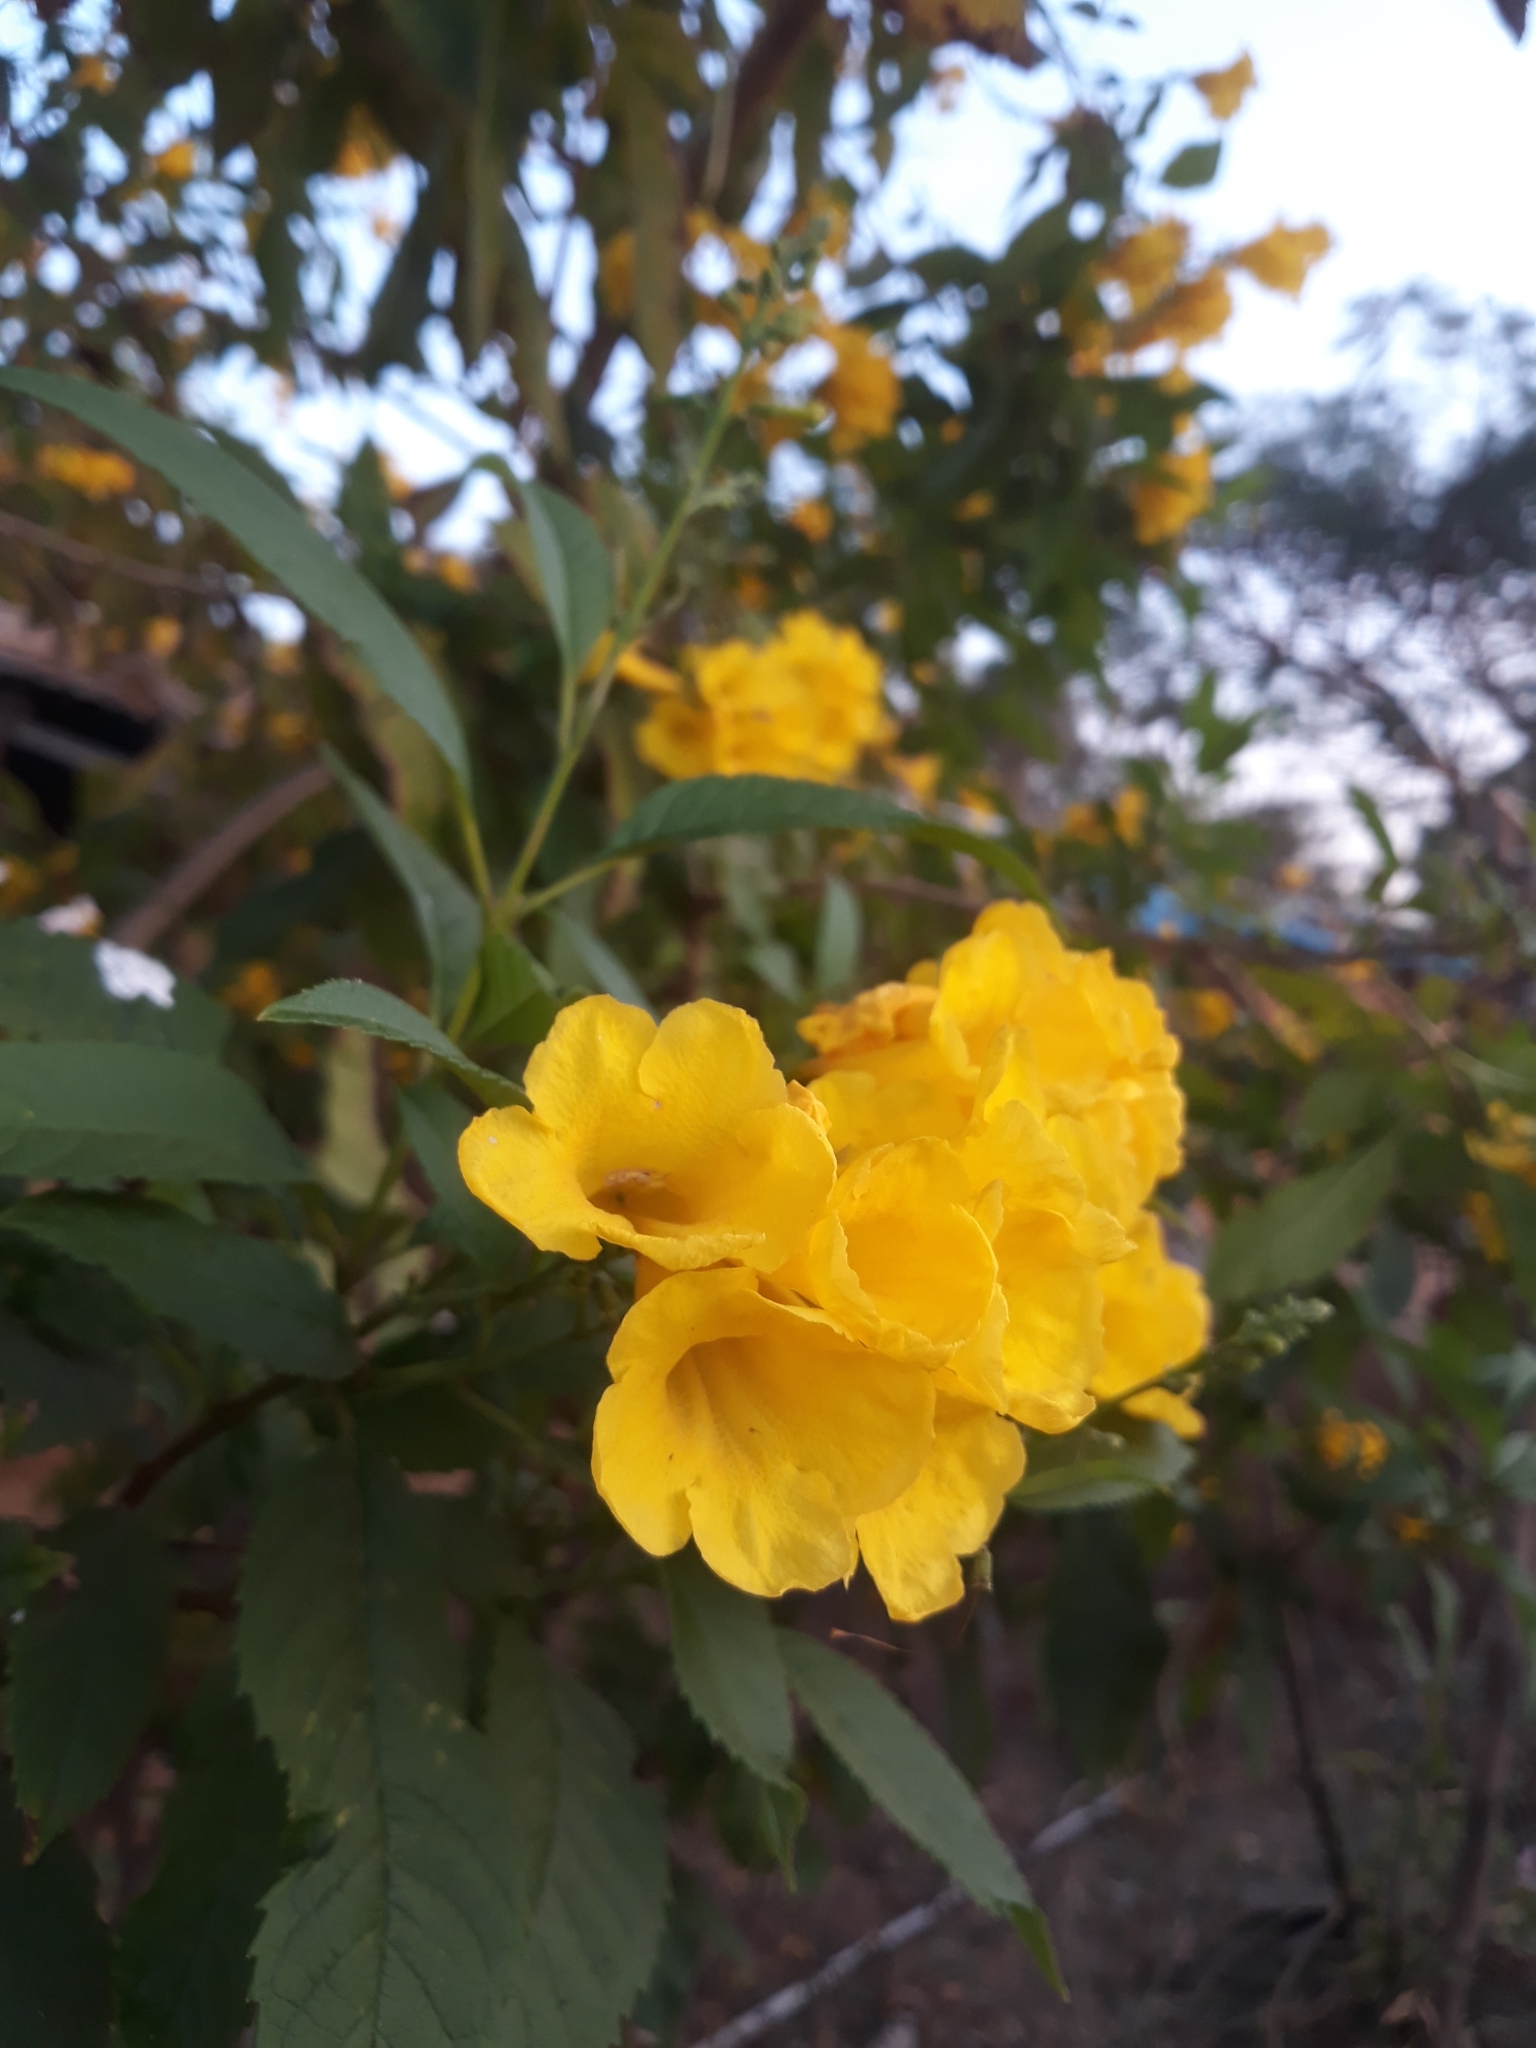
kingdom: Plantae
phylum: Tracheophyta
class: Magnoliopsida
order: Lamiales
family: Bignoniaceae
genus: Tecoma
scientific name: Tecoma stans
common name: Yellow trumpetbush
